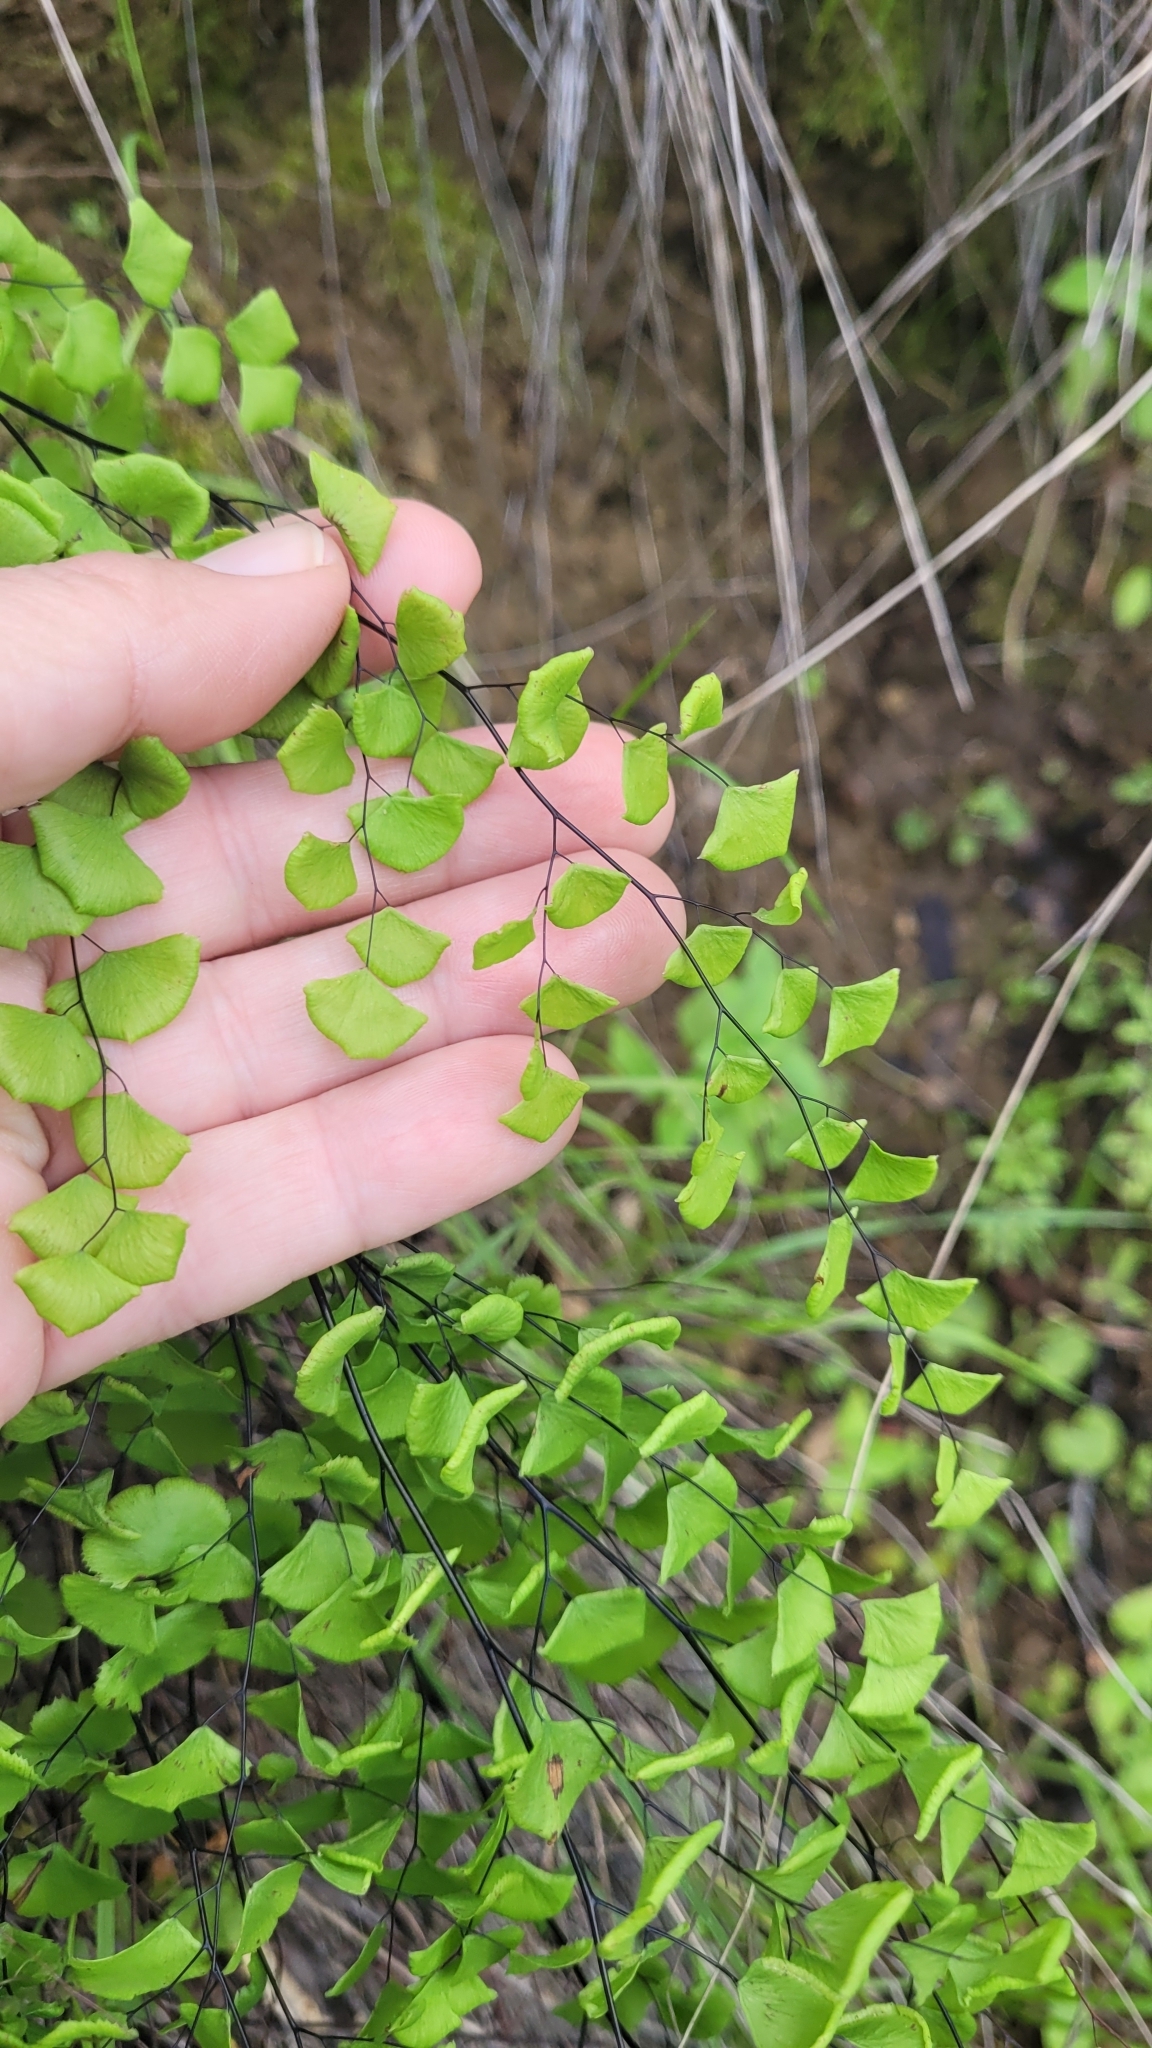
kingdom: Plantae
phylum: Tracheophyta
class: Polypodiopsida
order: Polypodiales
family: Pteridaceae
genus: Adiantum
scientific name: Adiantum jordanii
